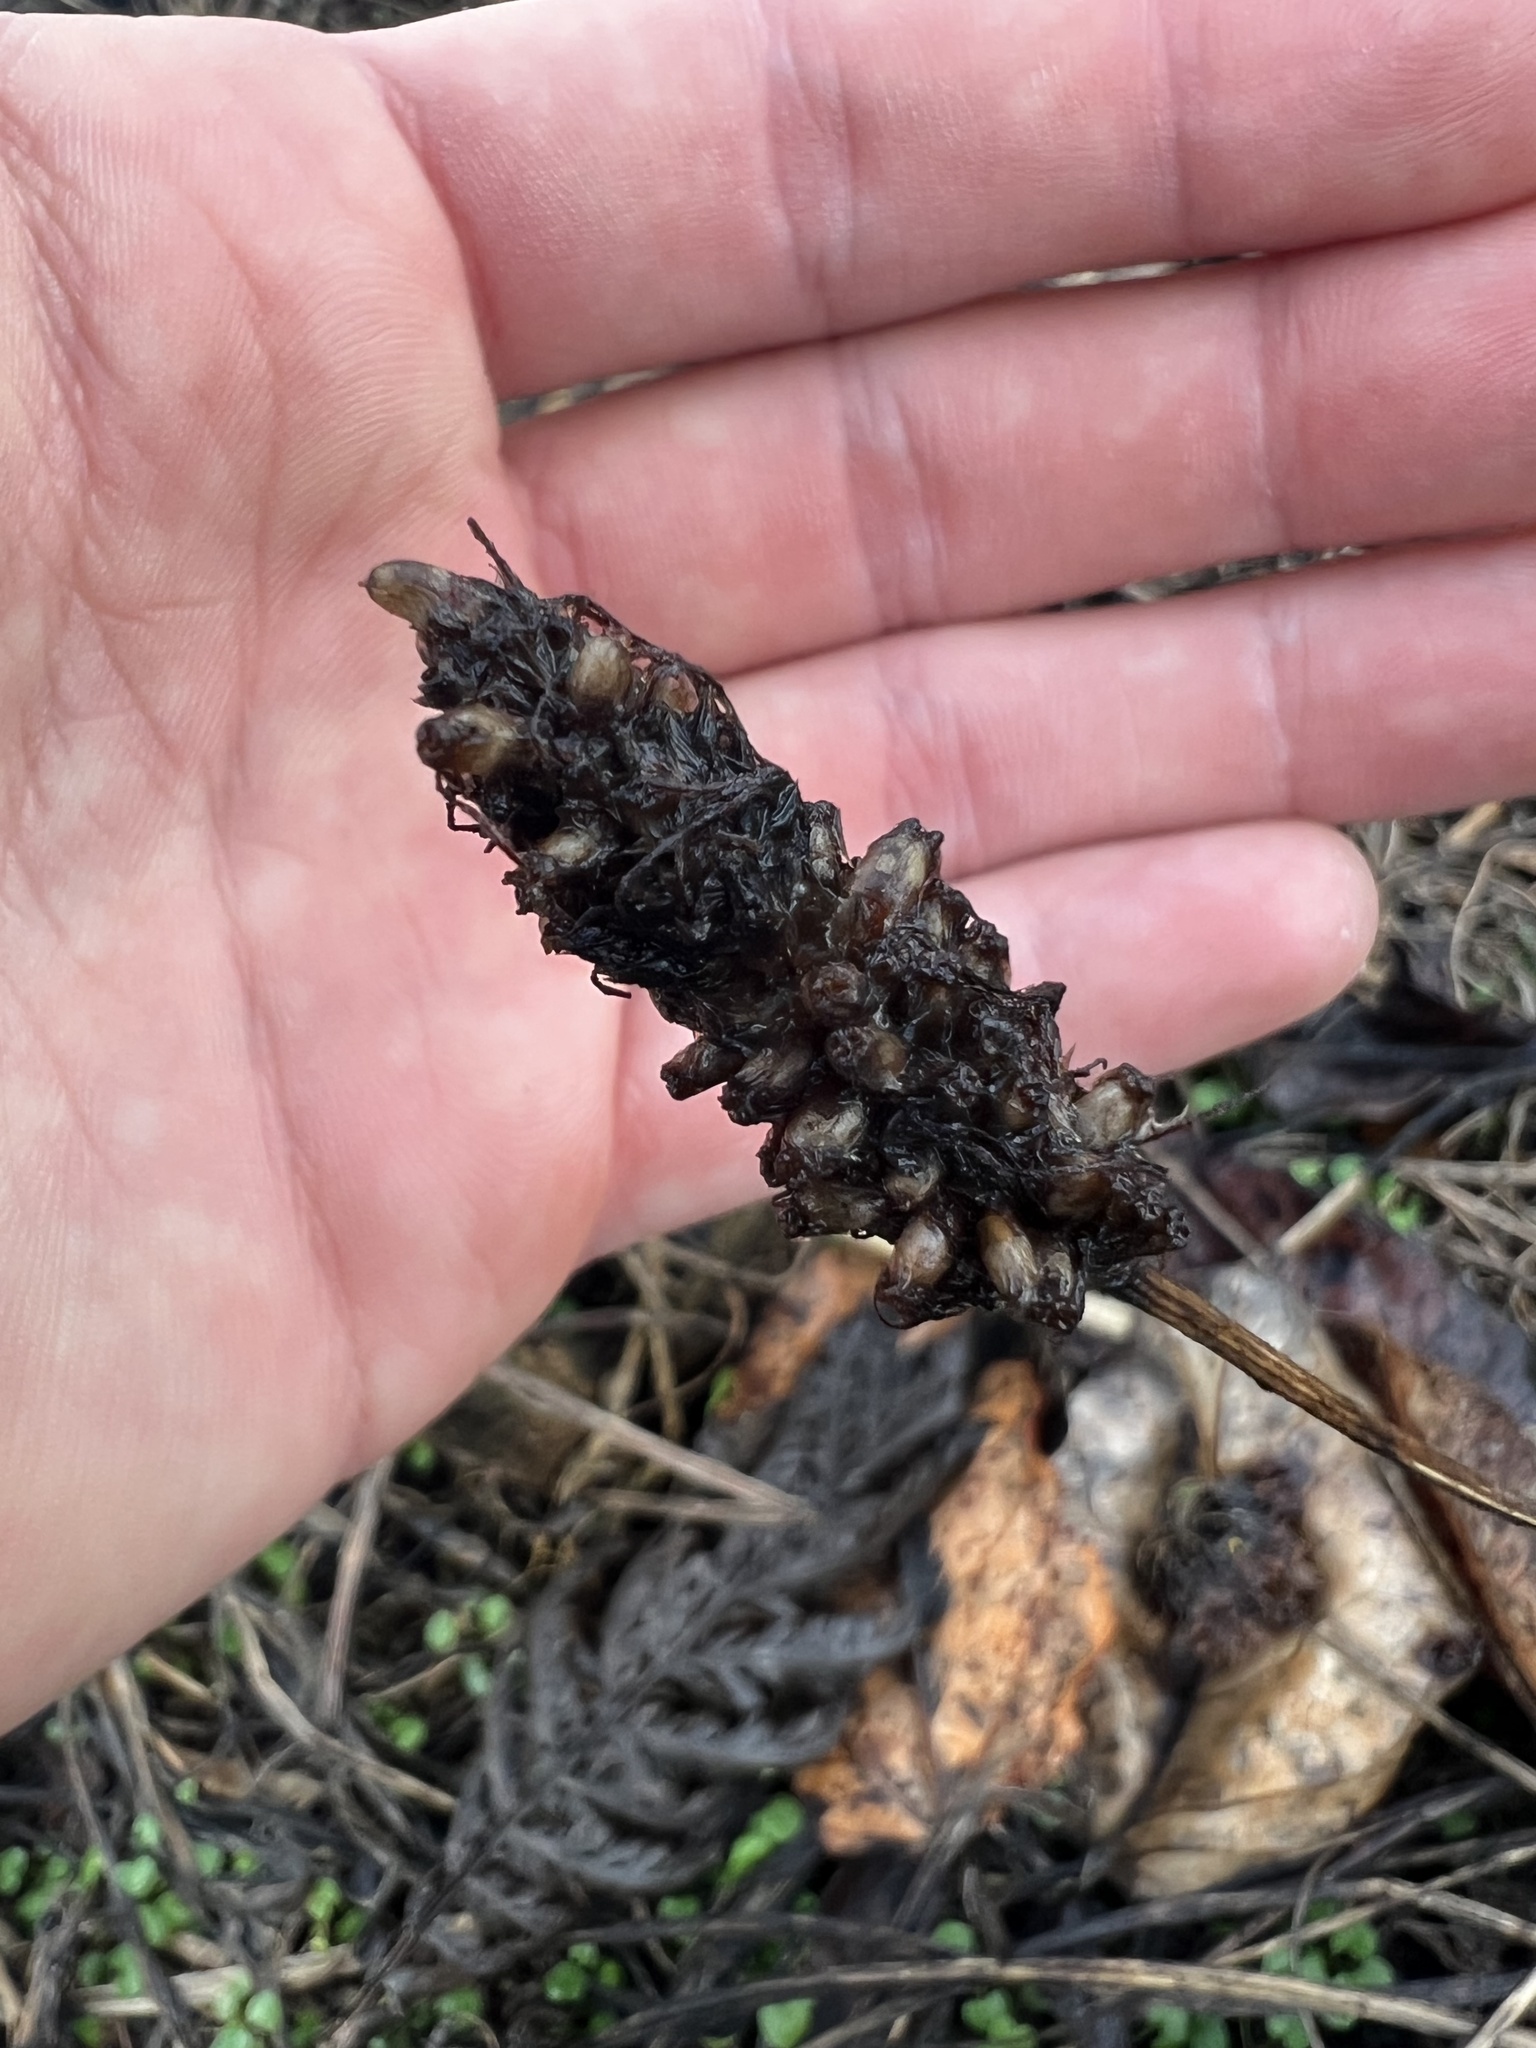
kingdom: Plantae
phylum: Tracheophyta
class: Magnoliopsida
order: Lamiales
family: Plantaginaceae
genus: Plantago
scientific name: Plantago lanceolata
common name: Ribwort plantain
